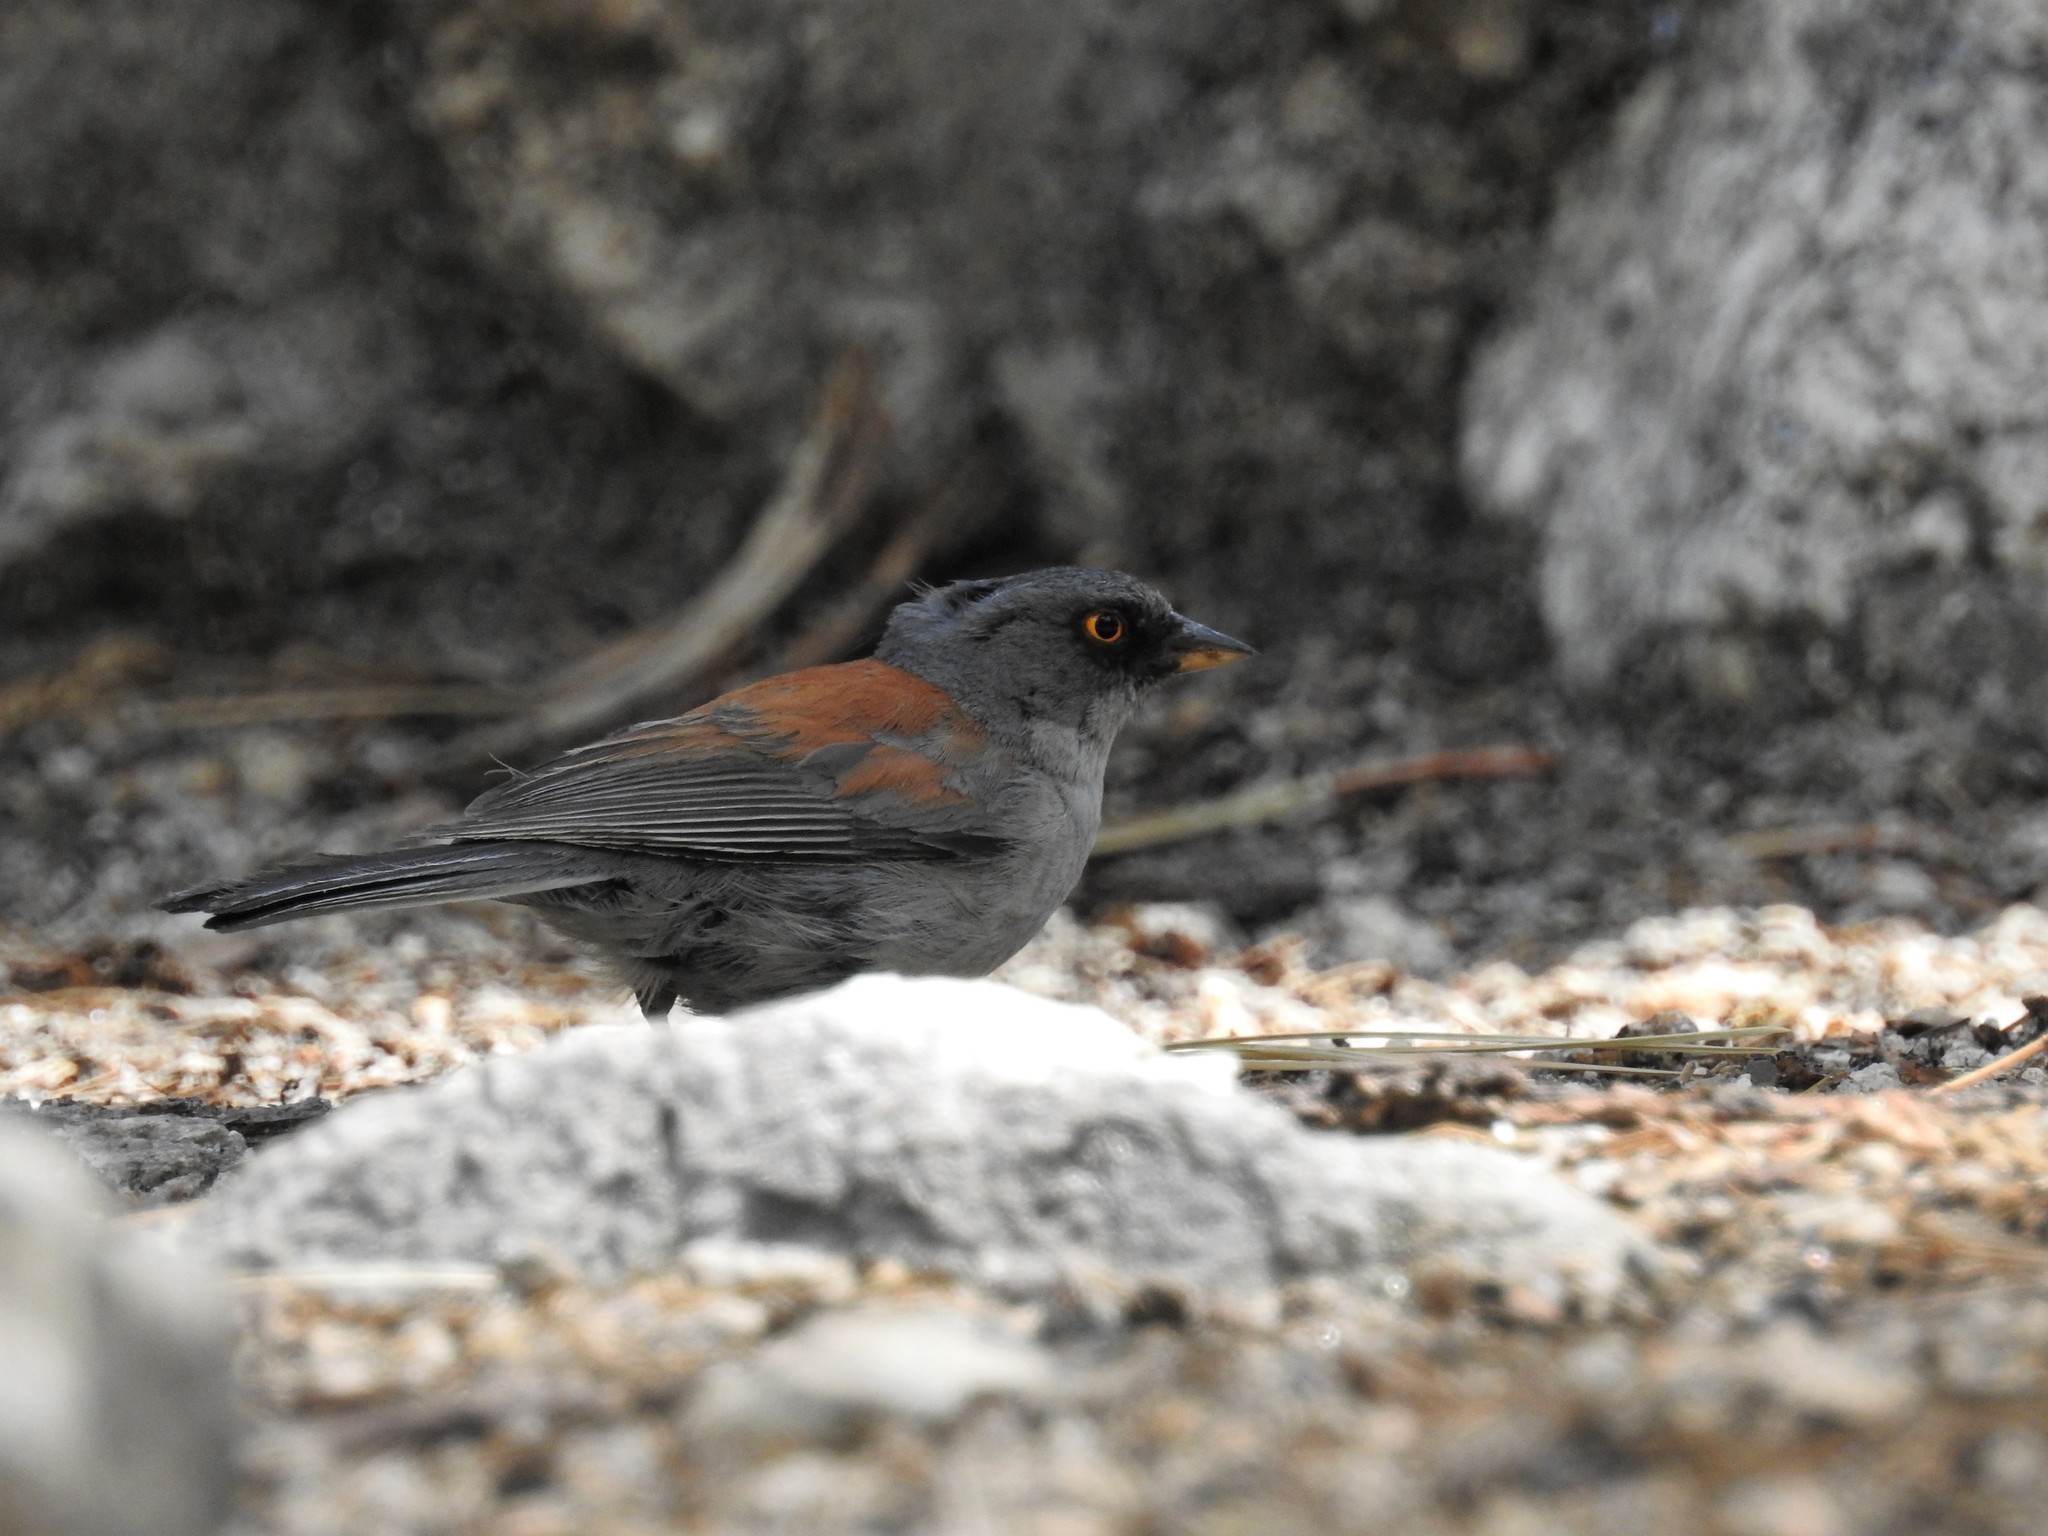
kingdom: Animalia
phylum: Chordata
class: Aves
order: Passeriformes
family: Passerellidae
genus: Junco
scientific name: Junco phaeonotus
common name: Yellow-eyed junco
